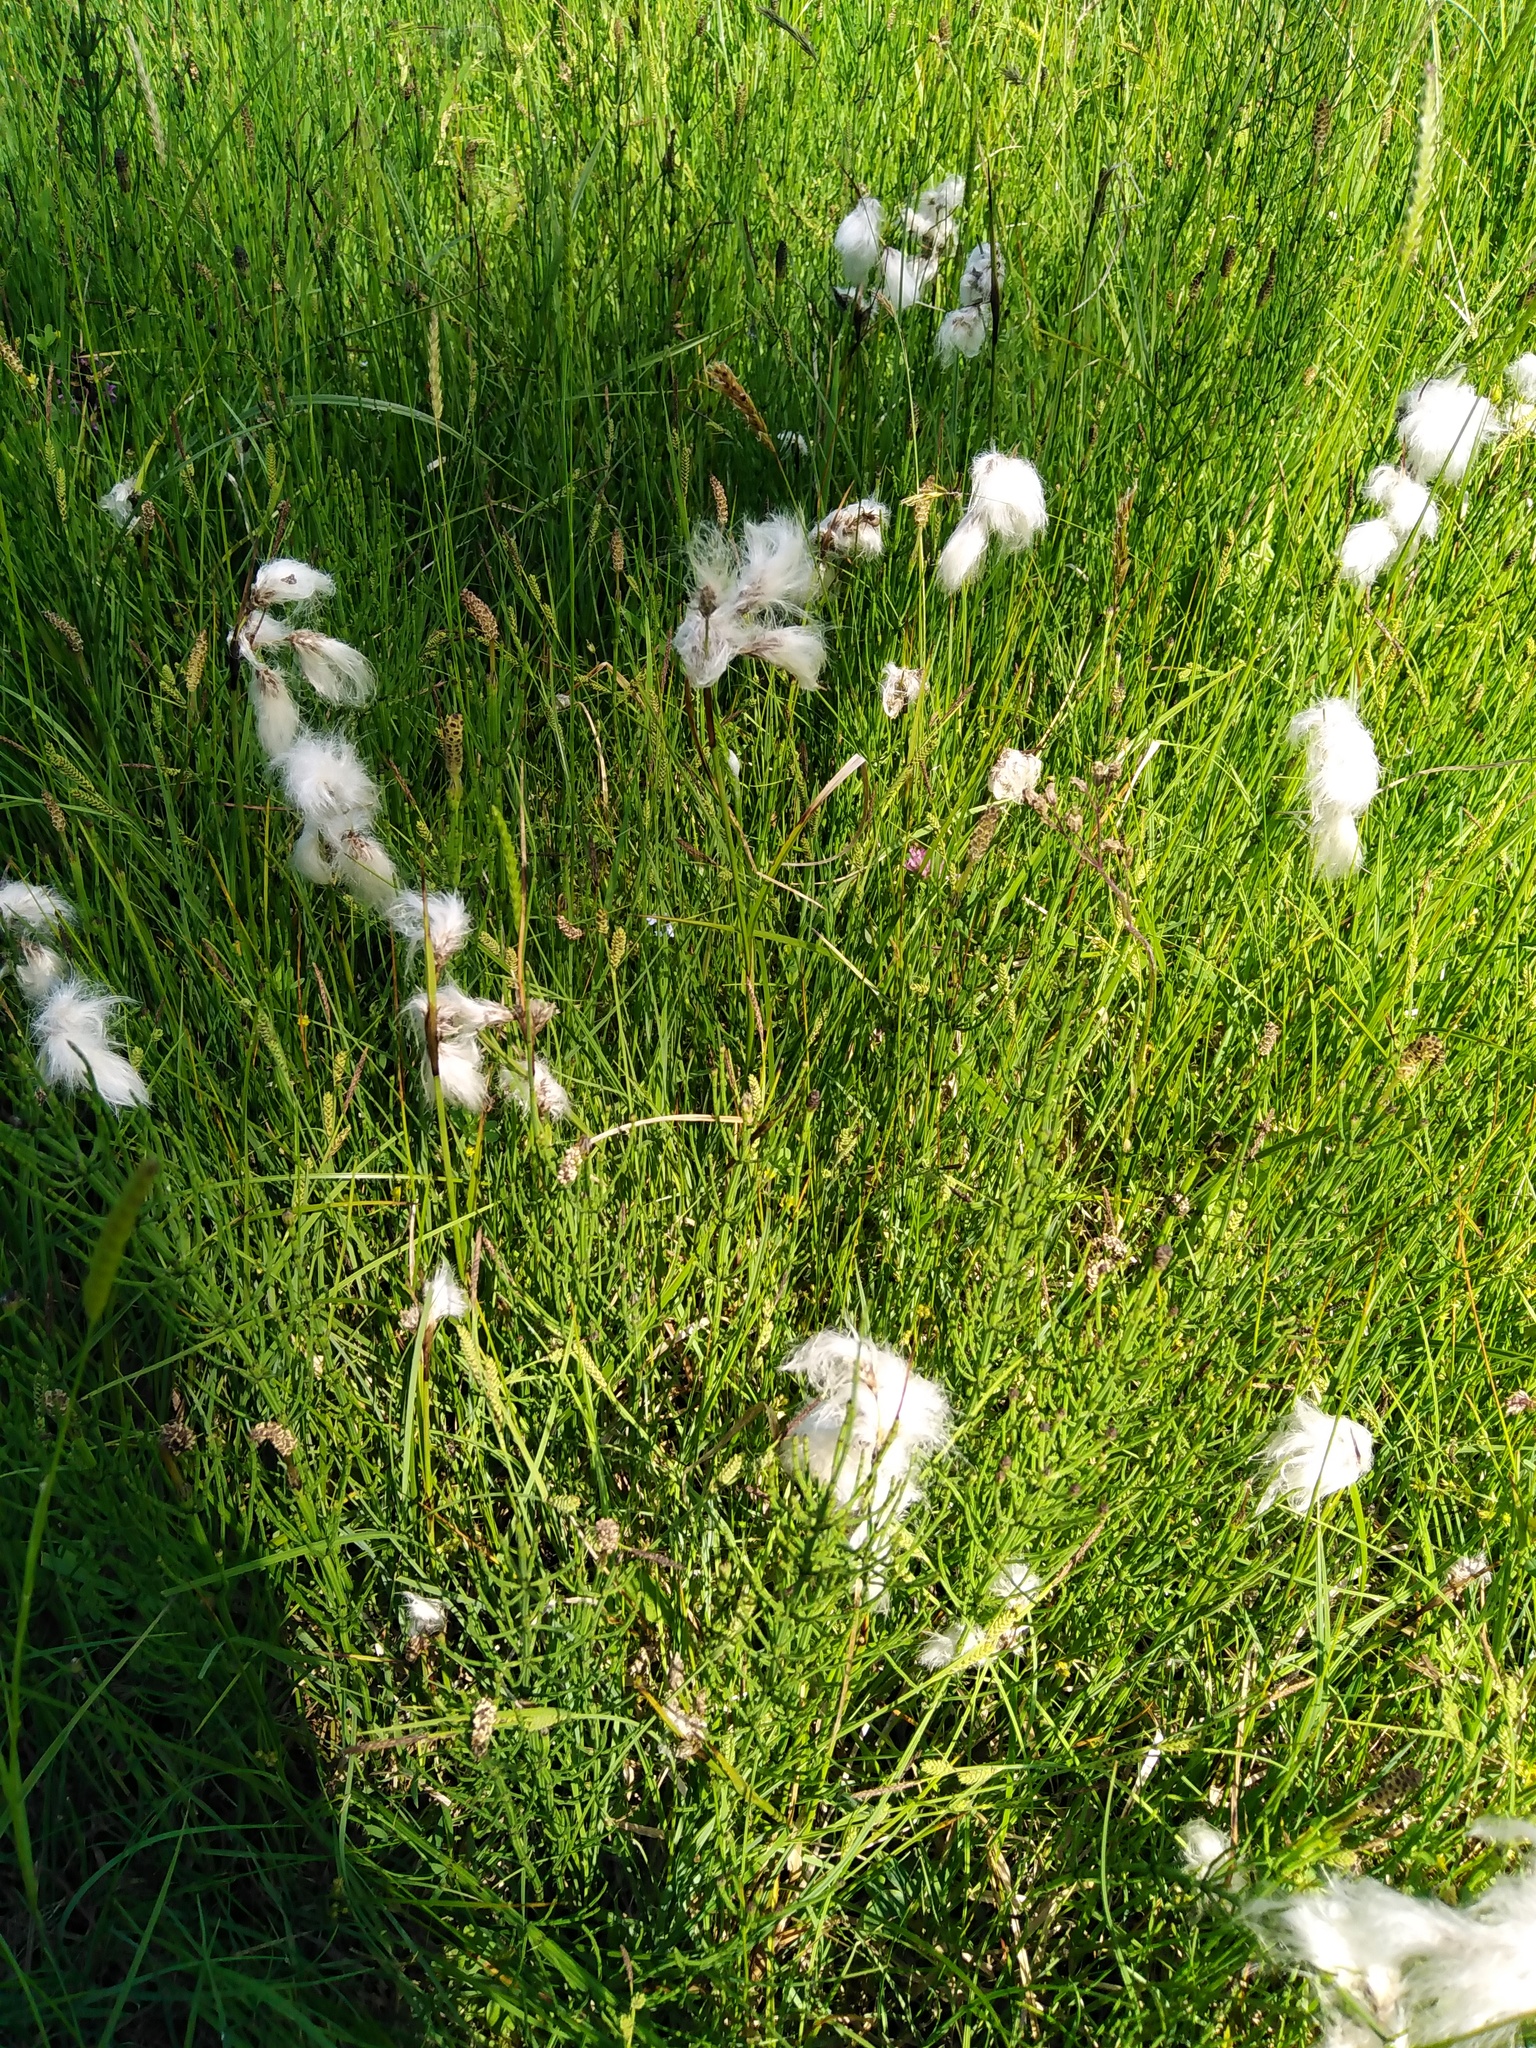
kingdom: Plantae
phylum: Tracheophyta
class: Liliopsida
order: Poales
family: Cyperaceae
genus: Eriophorum
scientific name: Eriophorum angustifolium
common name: Common cottongrass
